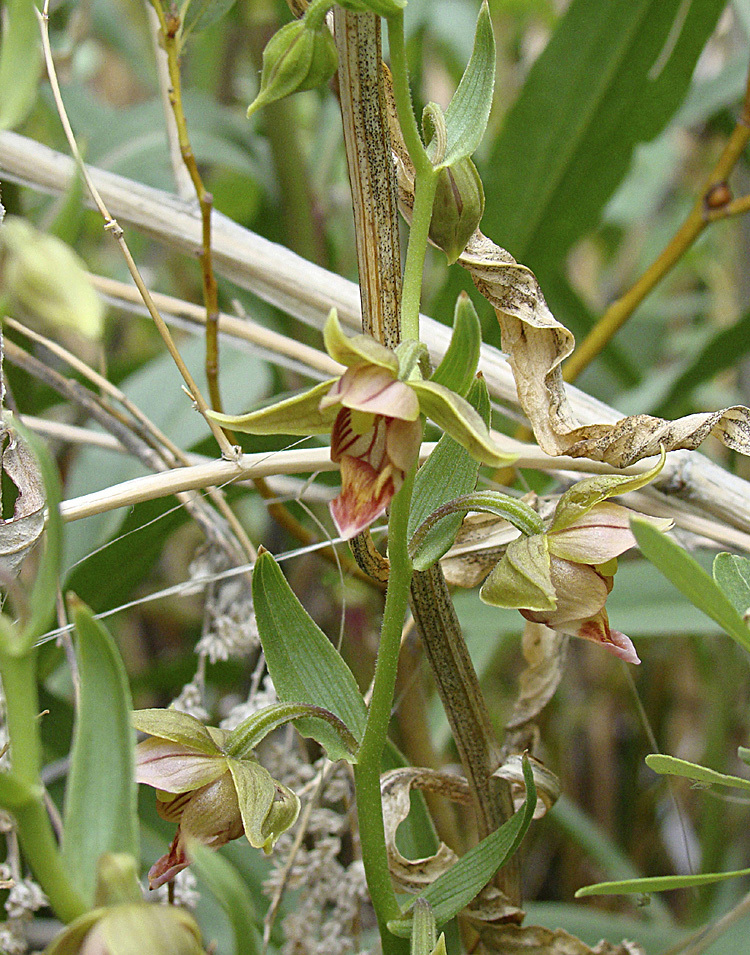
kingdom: Plantae
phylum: Tracheophyta
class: Liliopsida
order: Asparagales
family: Orchidaceae
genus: Epipactis
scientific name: Epipactis gigantea
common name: Chatterbox
